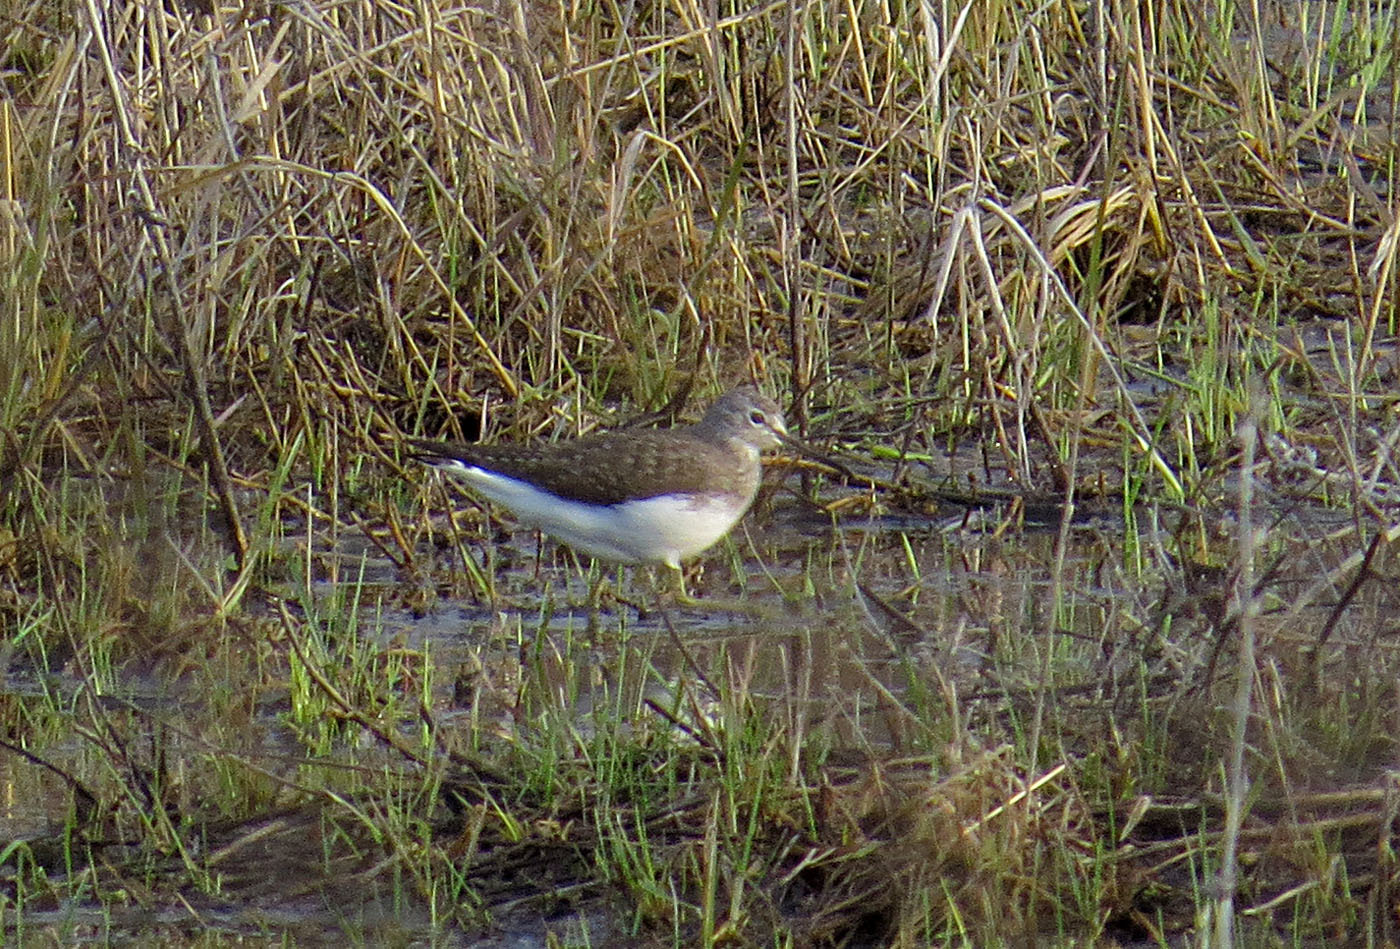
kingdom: Animalia
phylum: Chordata
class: Aves
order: Charadriiformes
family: Scolopacidae
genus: Tringa
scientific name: Tringa ochropus
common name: Green sandpiper
